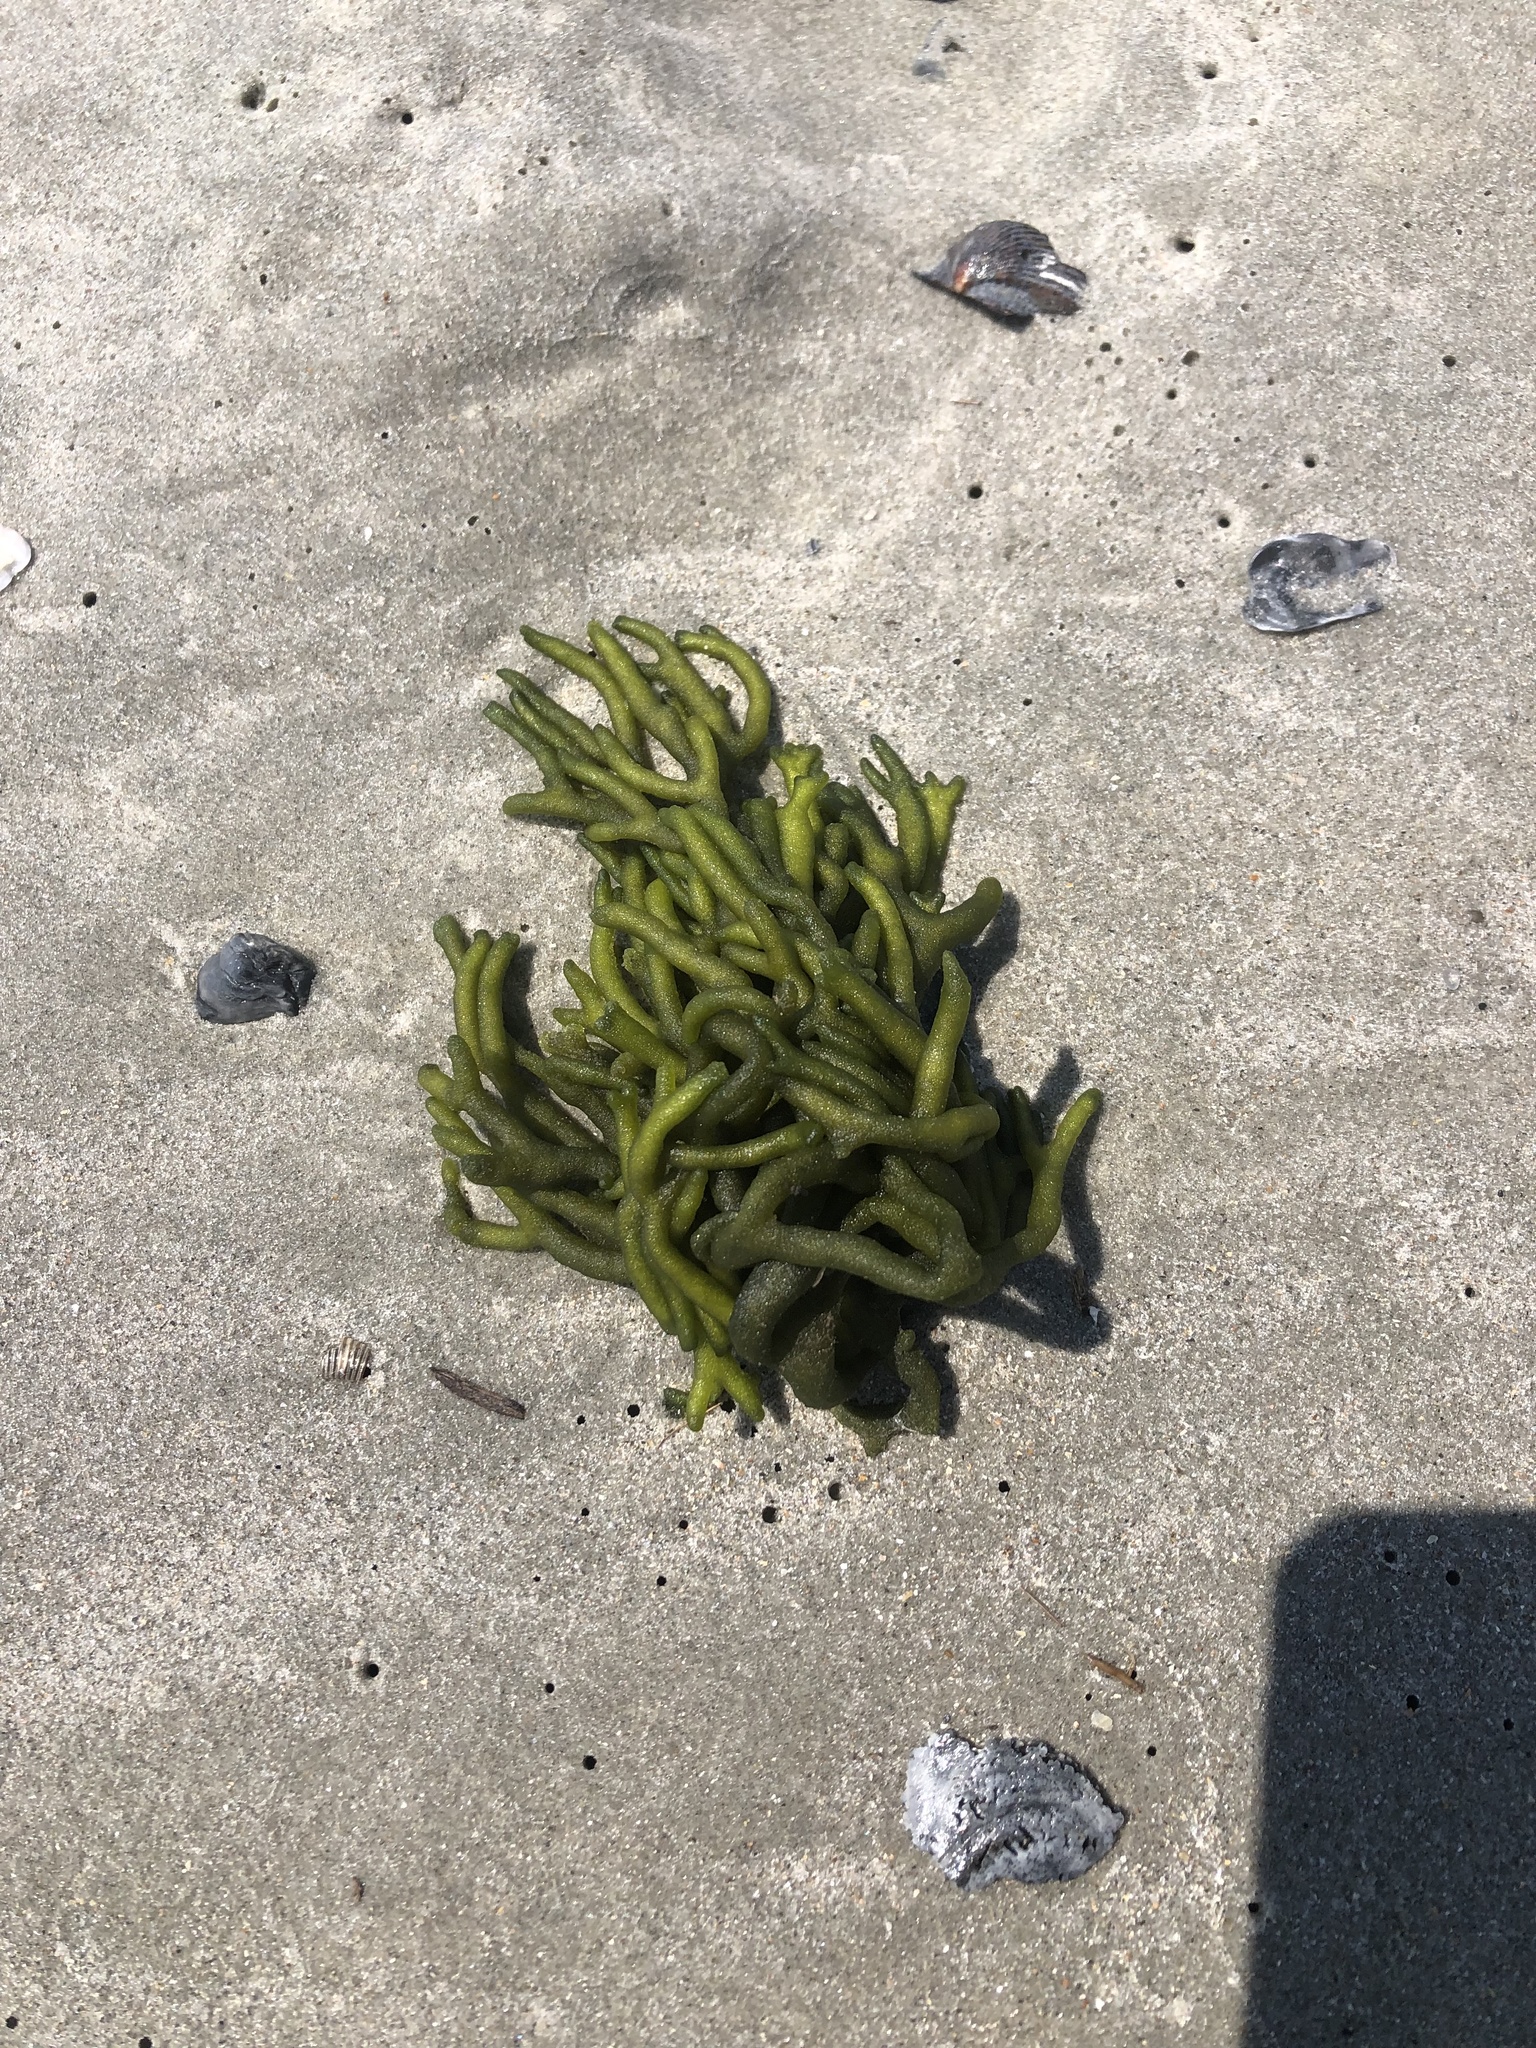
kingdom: Plantae
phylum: Chlorophyta
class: Ulvophyceae
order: Bryopsidales
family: Codiaceae
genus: Codium
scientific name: Codium fragile
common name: Dead man's fingers
